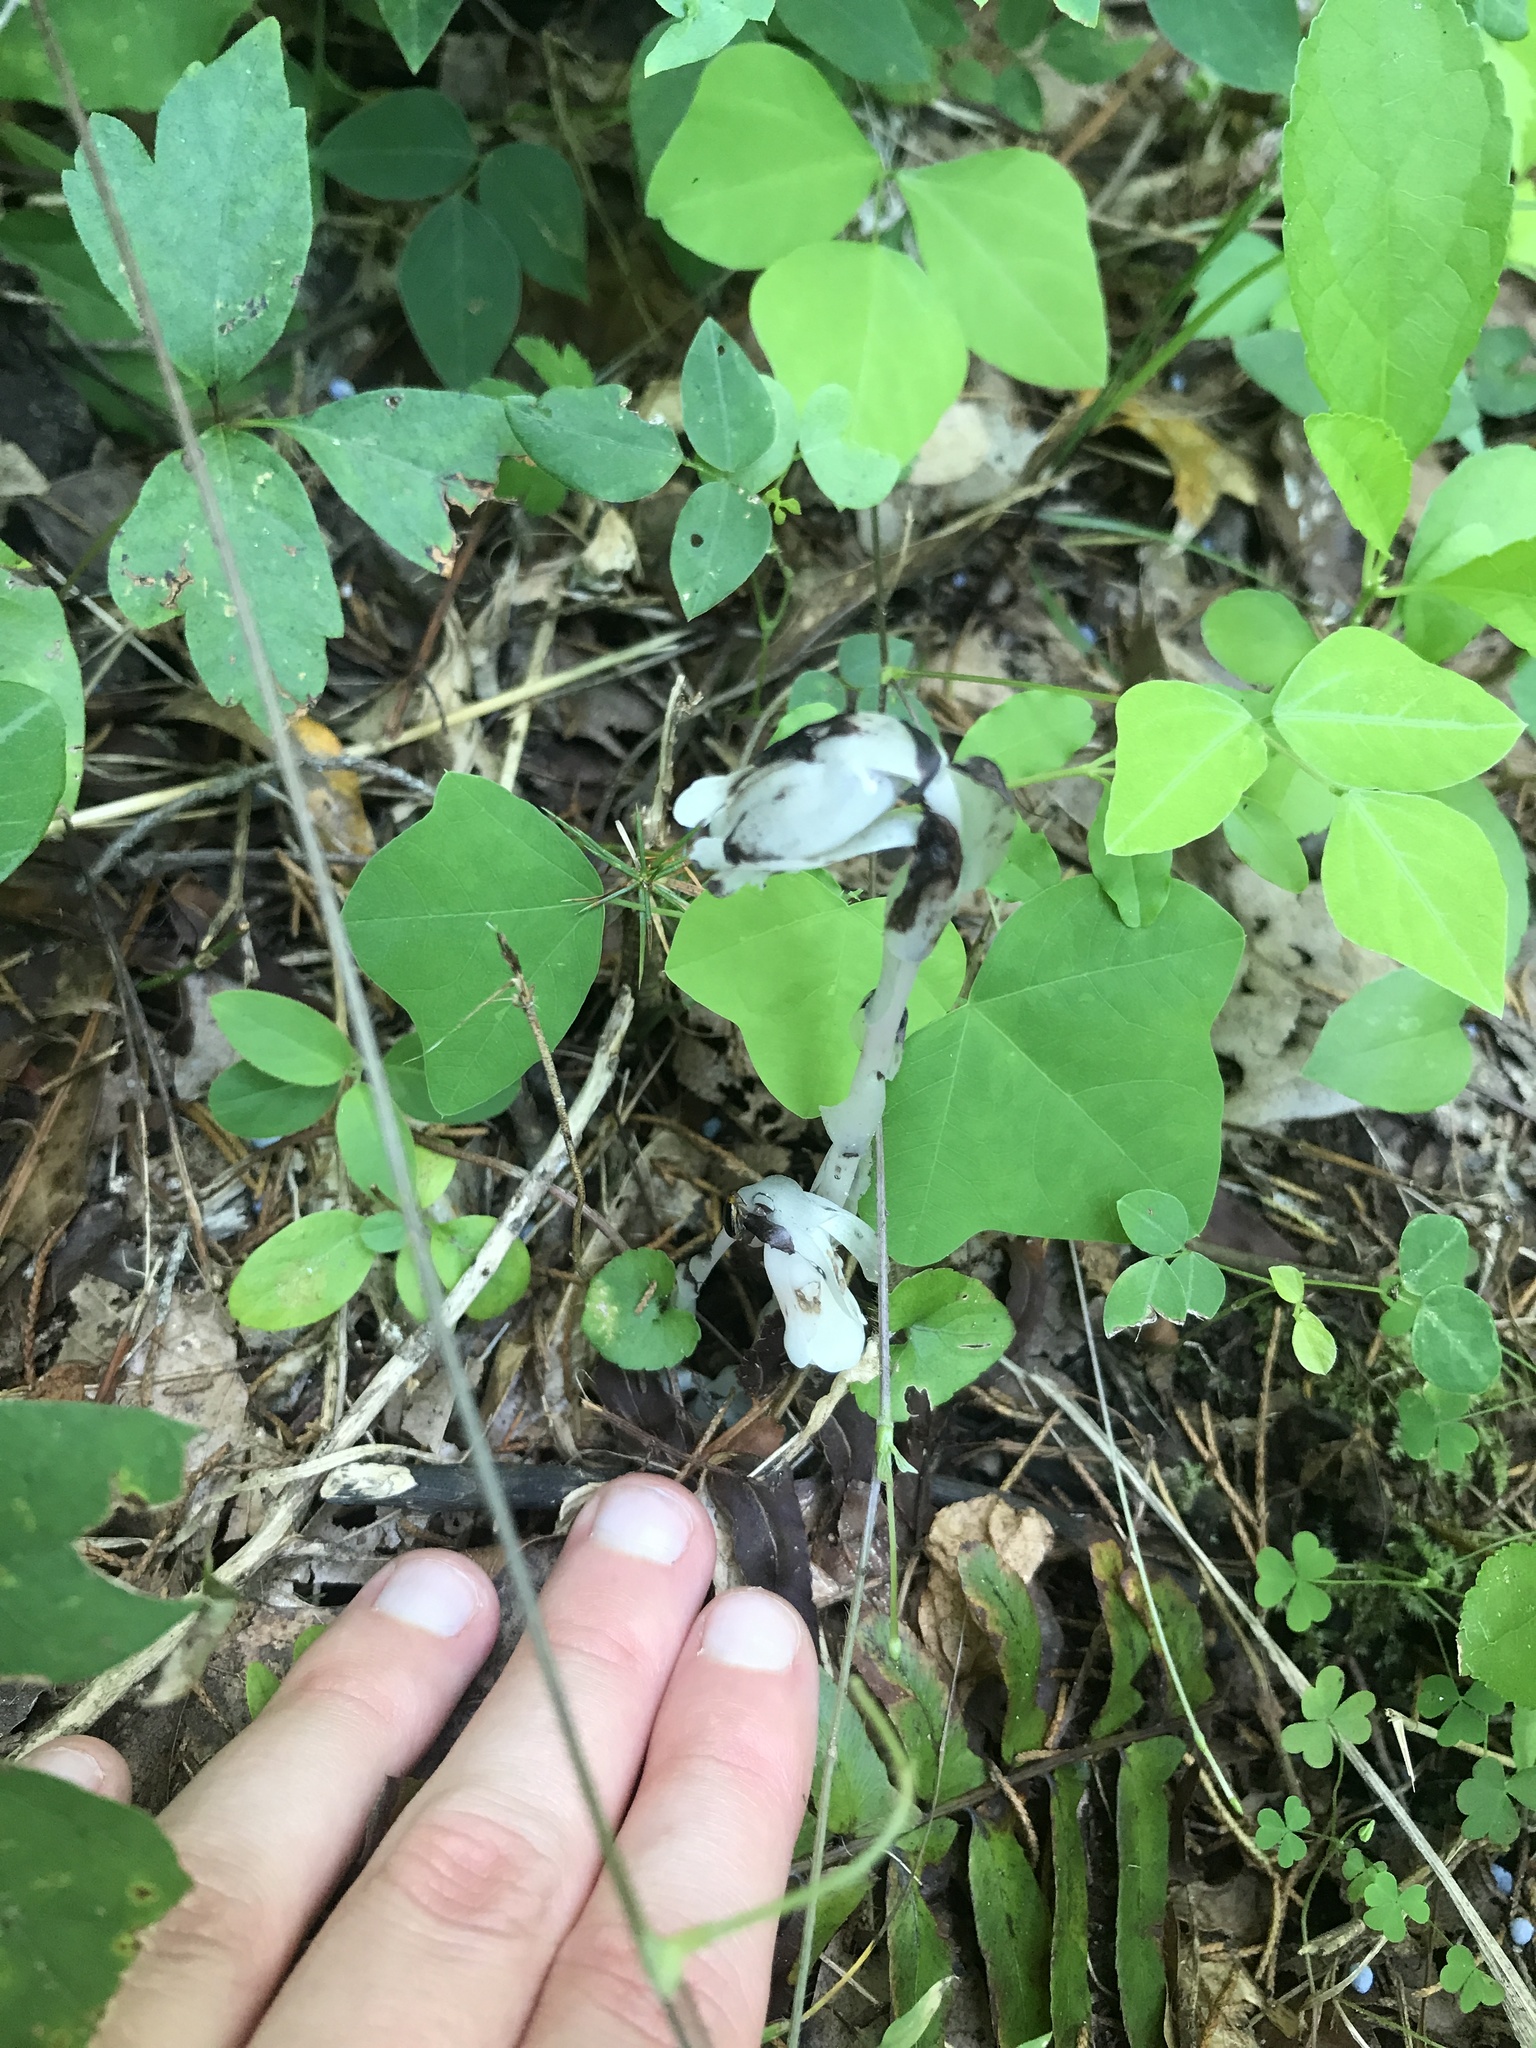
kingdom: Plantae
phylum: Tracheophyta
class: Magnoliopsida
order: Ericales
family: Ericaceae
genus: Monotropa
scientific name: Monotropa uniflora
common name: Convulsion root
